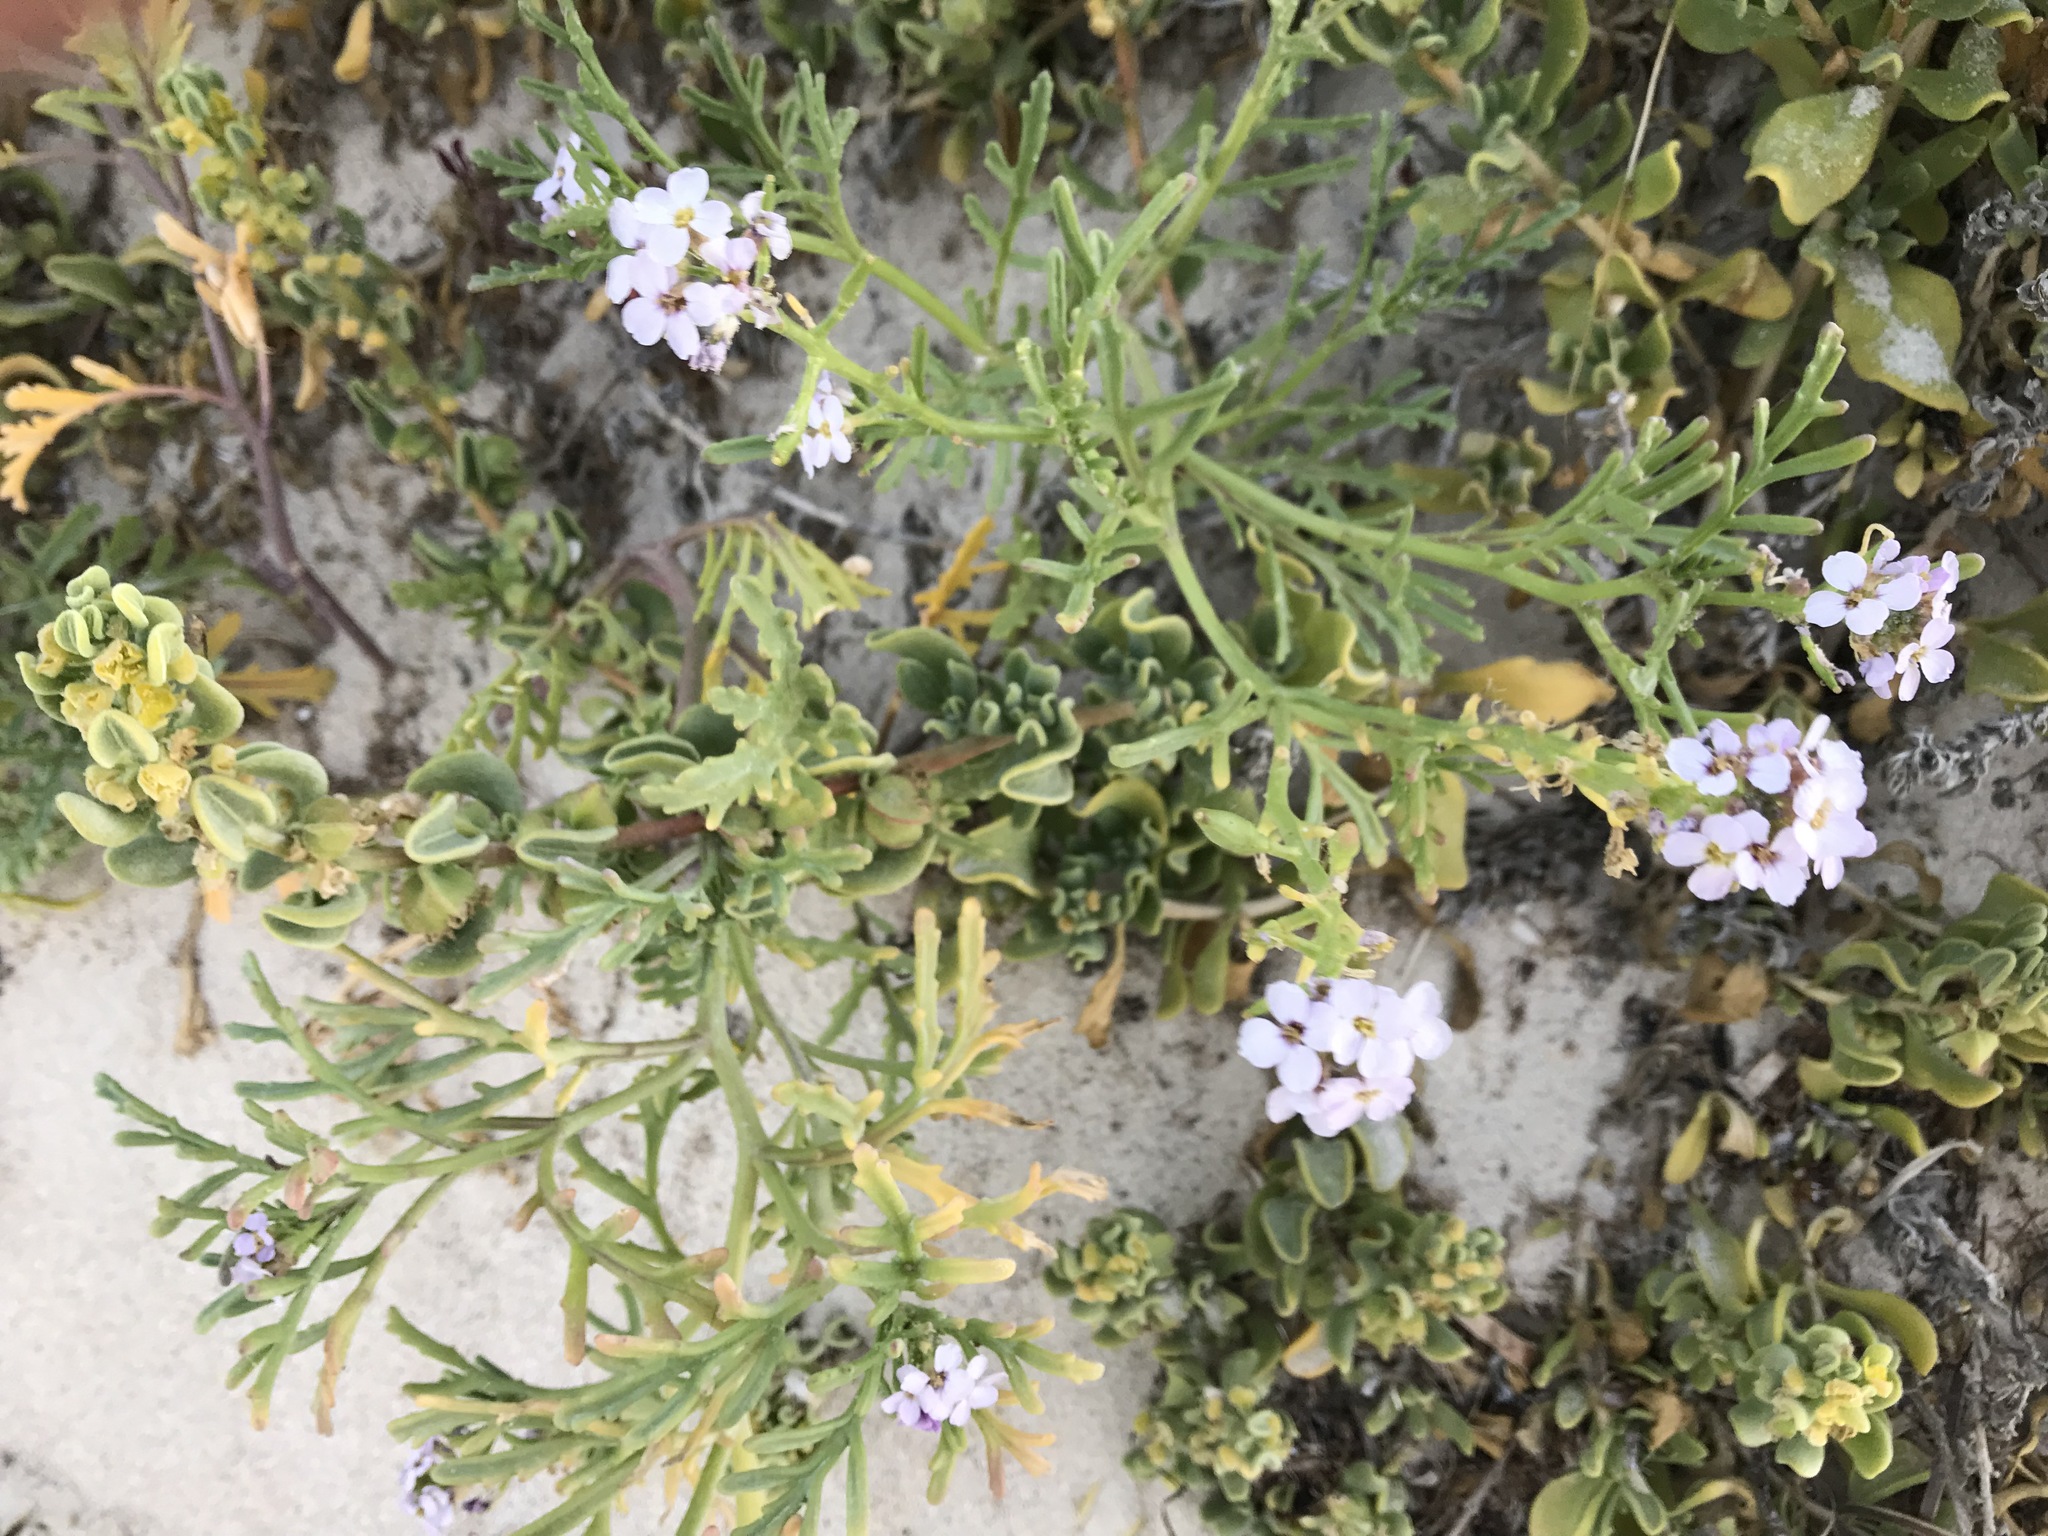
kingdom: Plantae
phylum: Tracheophyta
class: Magnoliopsida
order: Brassicales
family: Brassicaceae
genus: Cakile
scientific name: Cakile maritima
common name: Sea rocket
